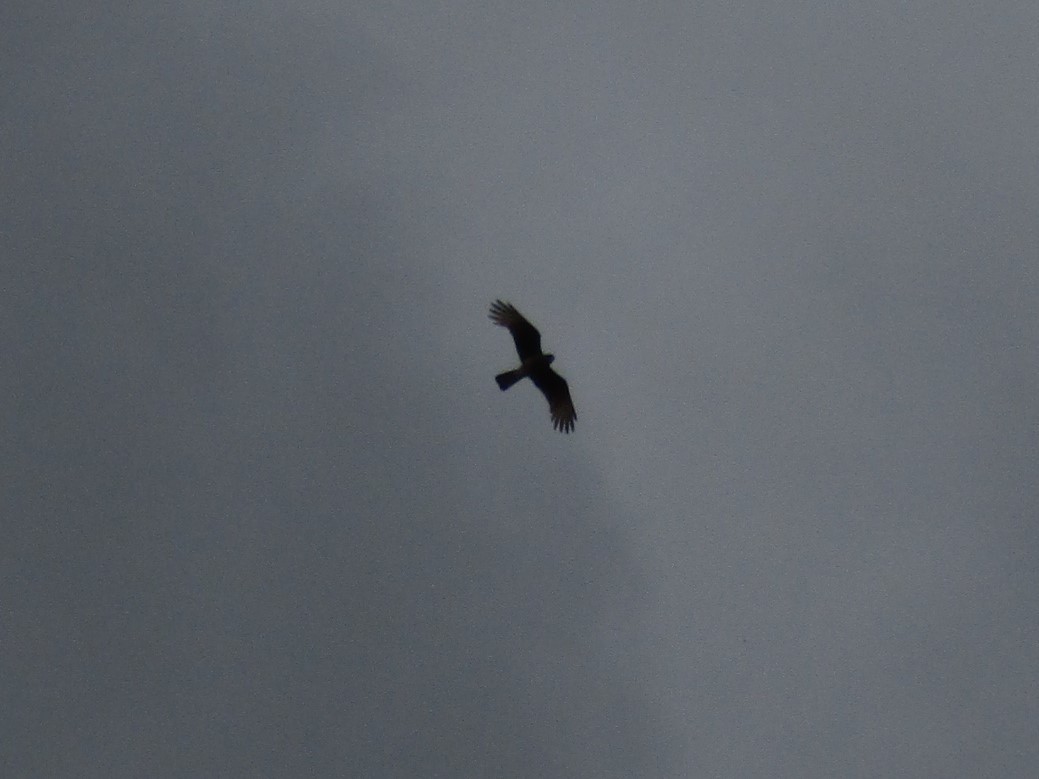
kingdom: Animalia
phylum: Chordata
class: Aves
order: Falconiformes
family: Falconidae
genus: Daptrius
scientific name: Daptrius
